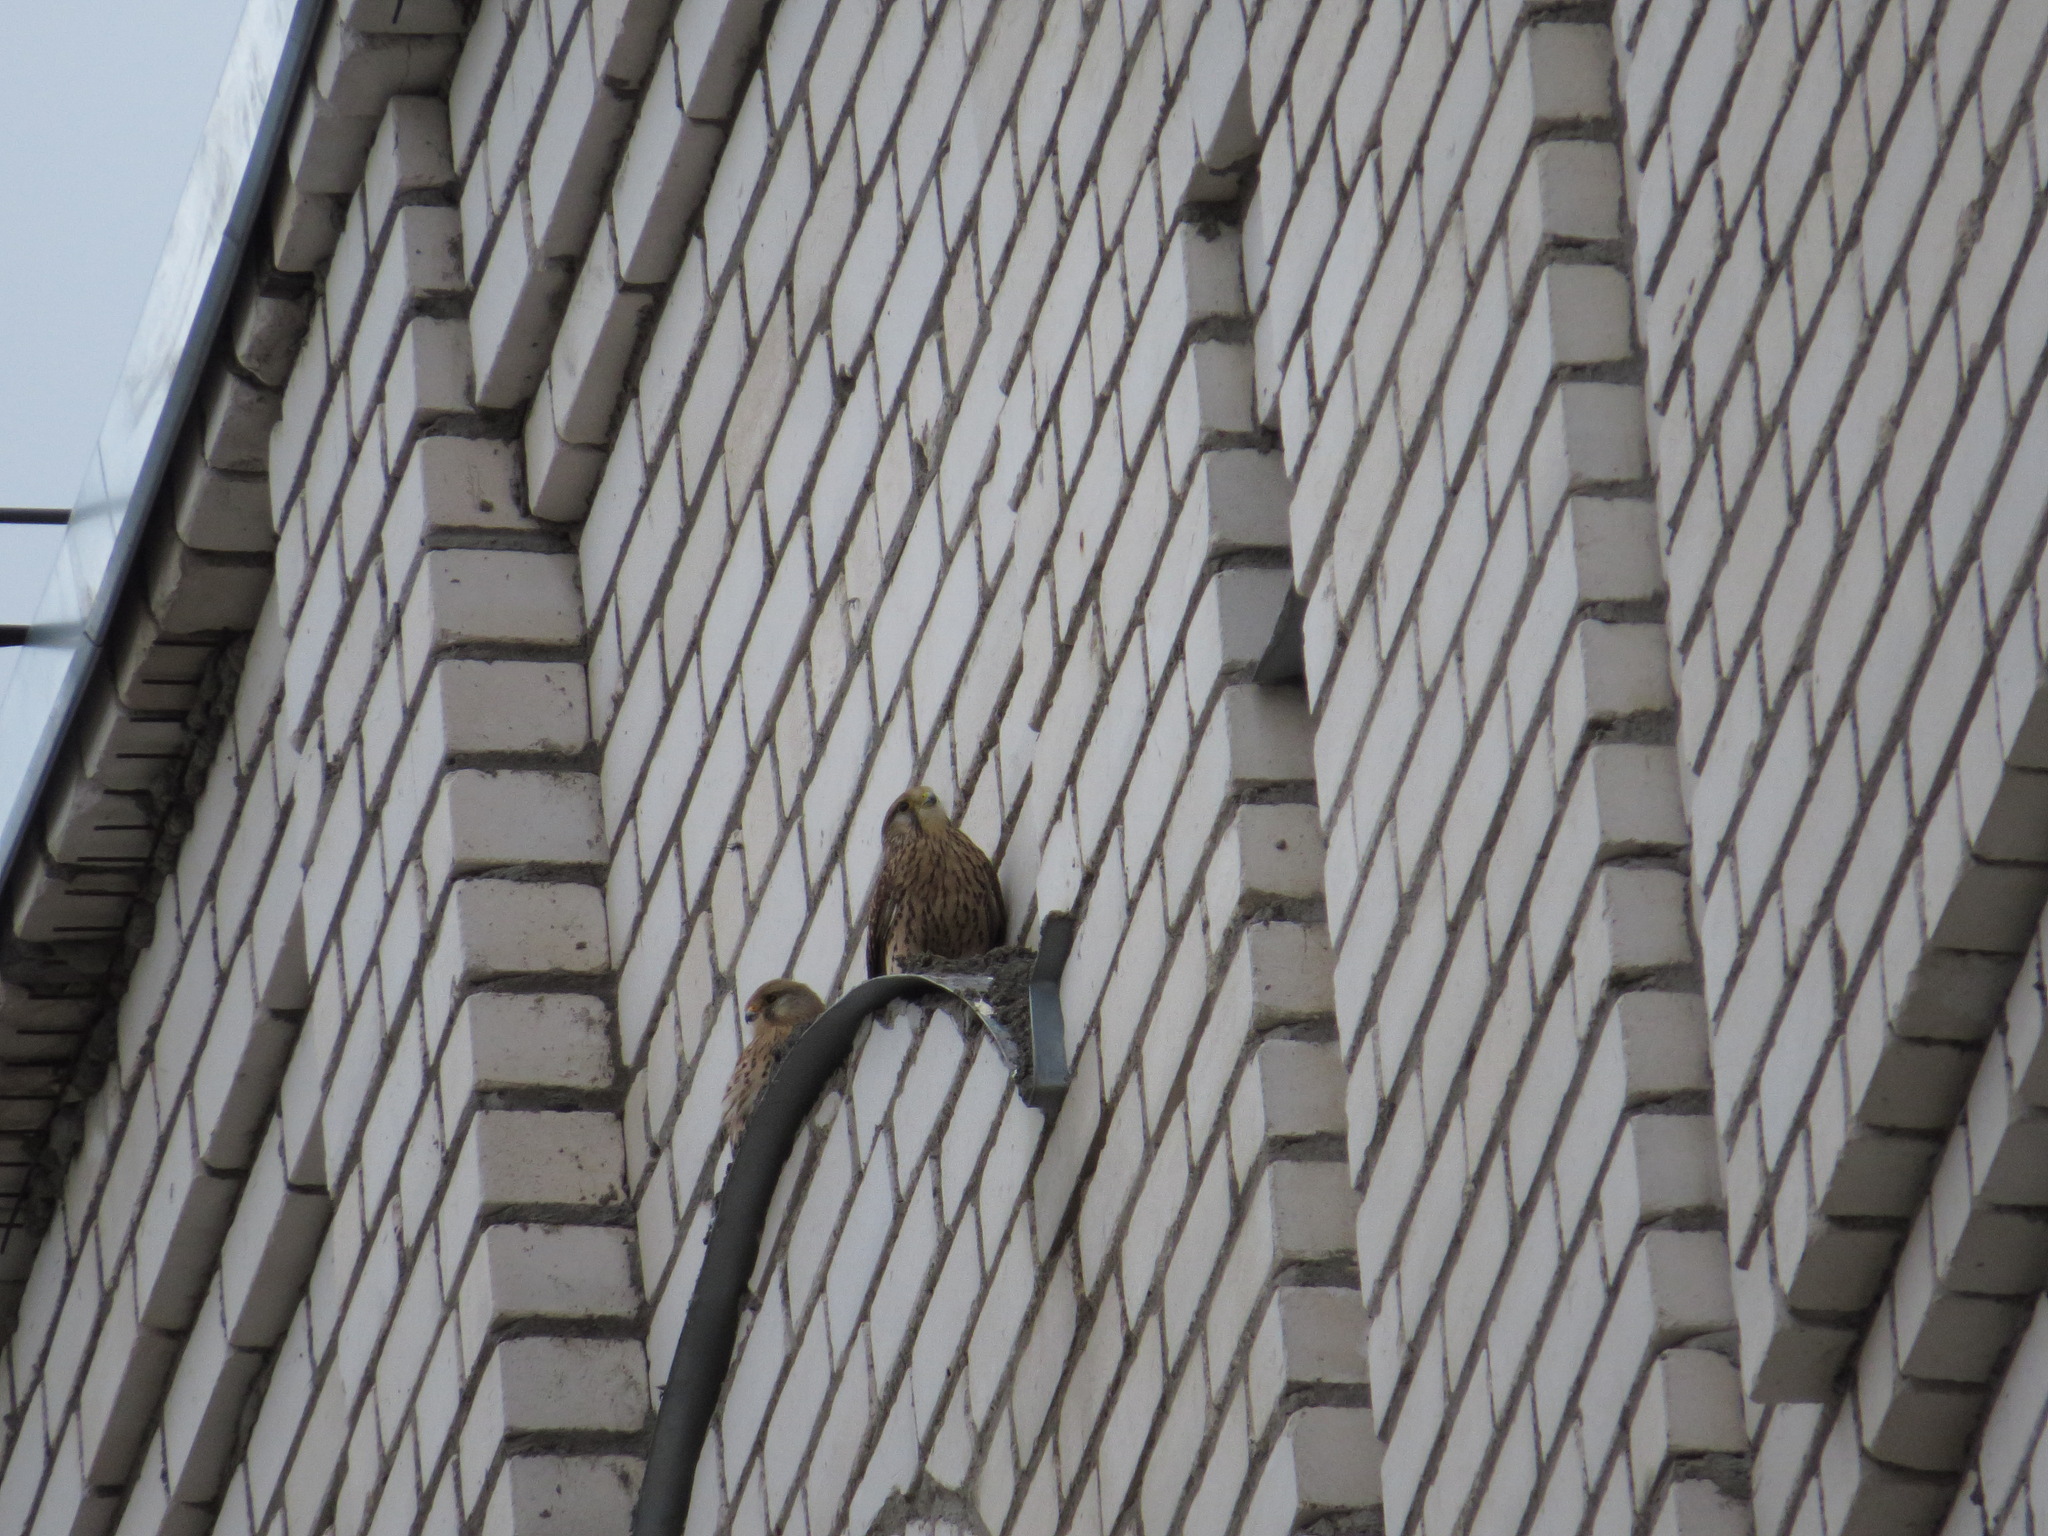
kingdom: Animalia
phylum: Chordata
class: Aves
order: Falconiformes
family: Falconidae
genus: Falco
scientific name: Falco tinnunculus
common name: Common kestrel
